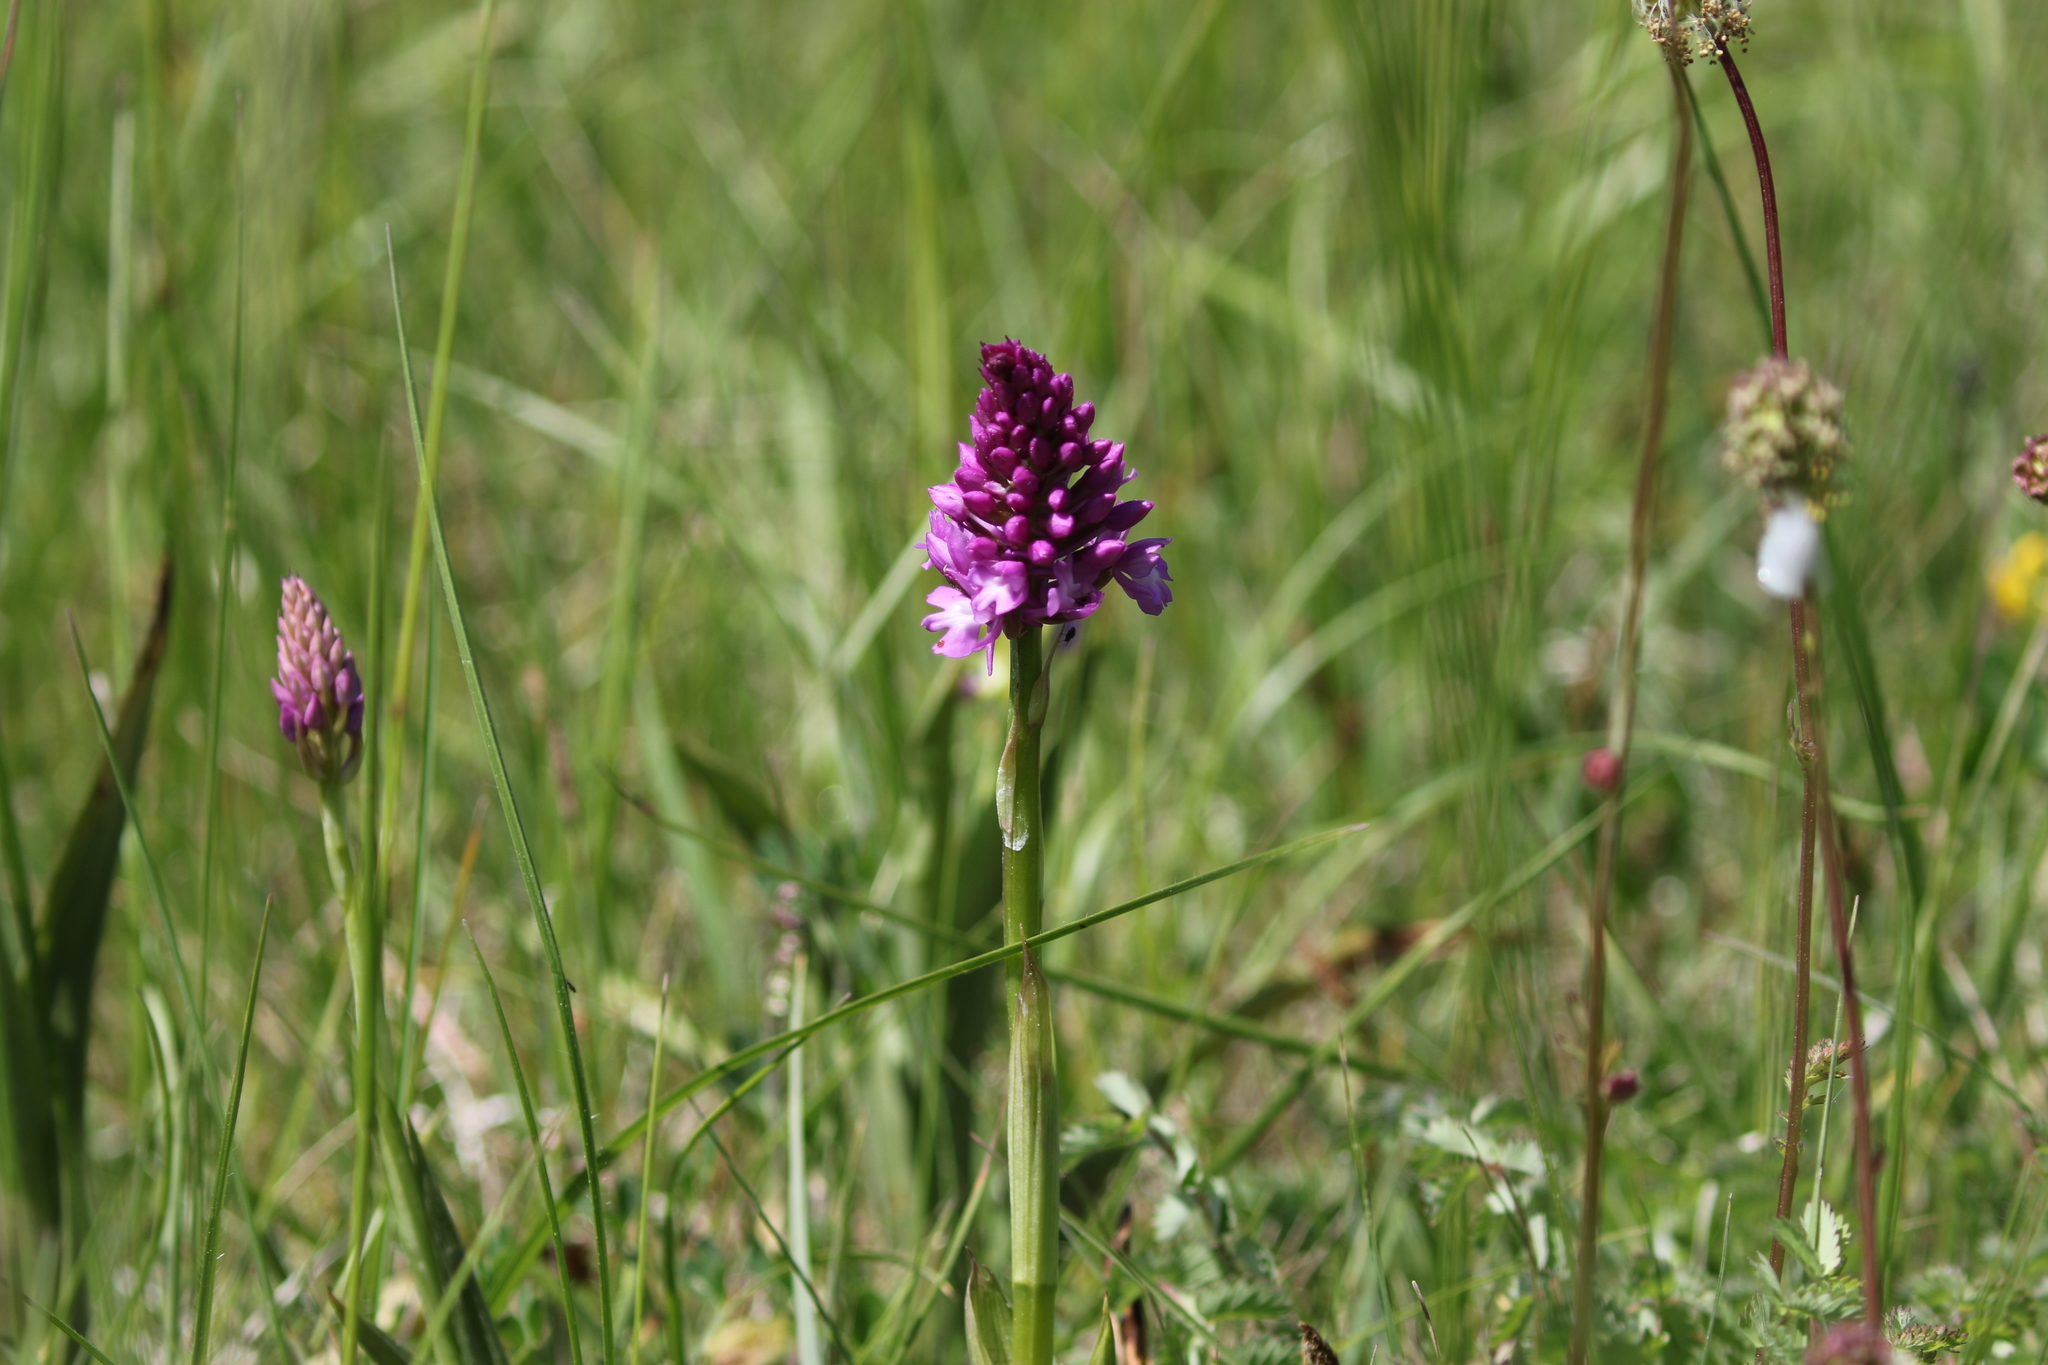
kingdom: Plantae
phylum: Tracheophyta
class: Liliopsida
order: Asparagales
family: Orchidaceae
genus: Anacamptis
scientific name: Anacamptis pyramidalis
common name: Pyramidal orchid
